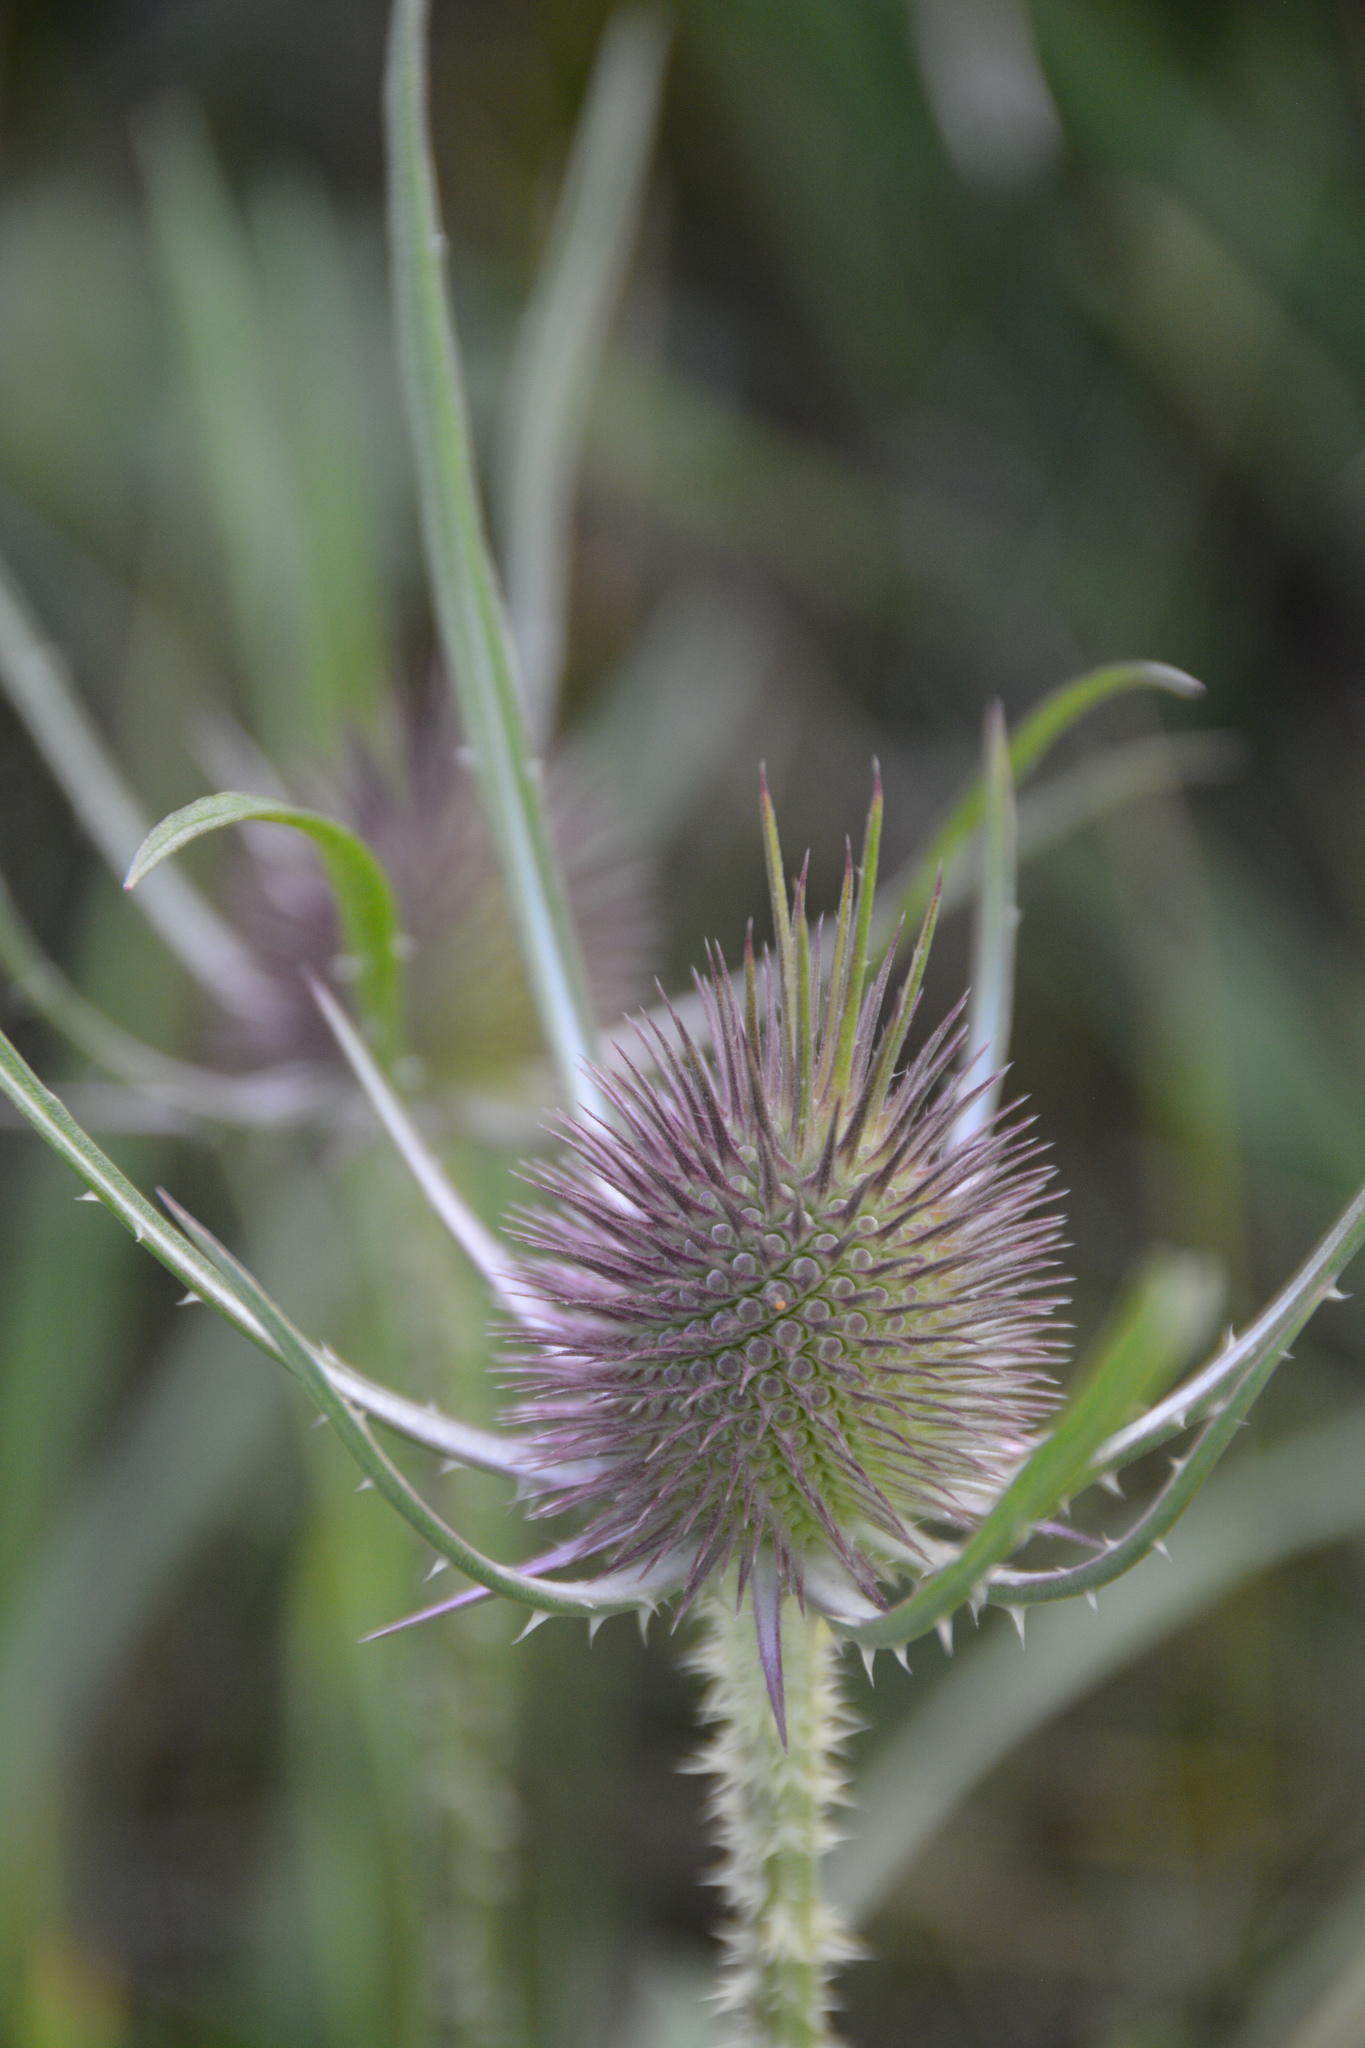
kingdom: Plantae
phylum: Tracheophyta
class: Magnoliopsida
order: Dipsacales
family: Caprifoliaceae
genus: Dipsacus
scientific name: Dipsacus fullonum
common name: Teasel
